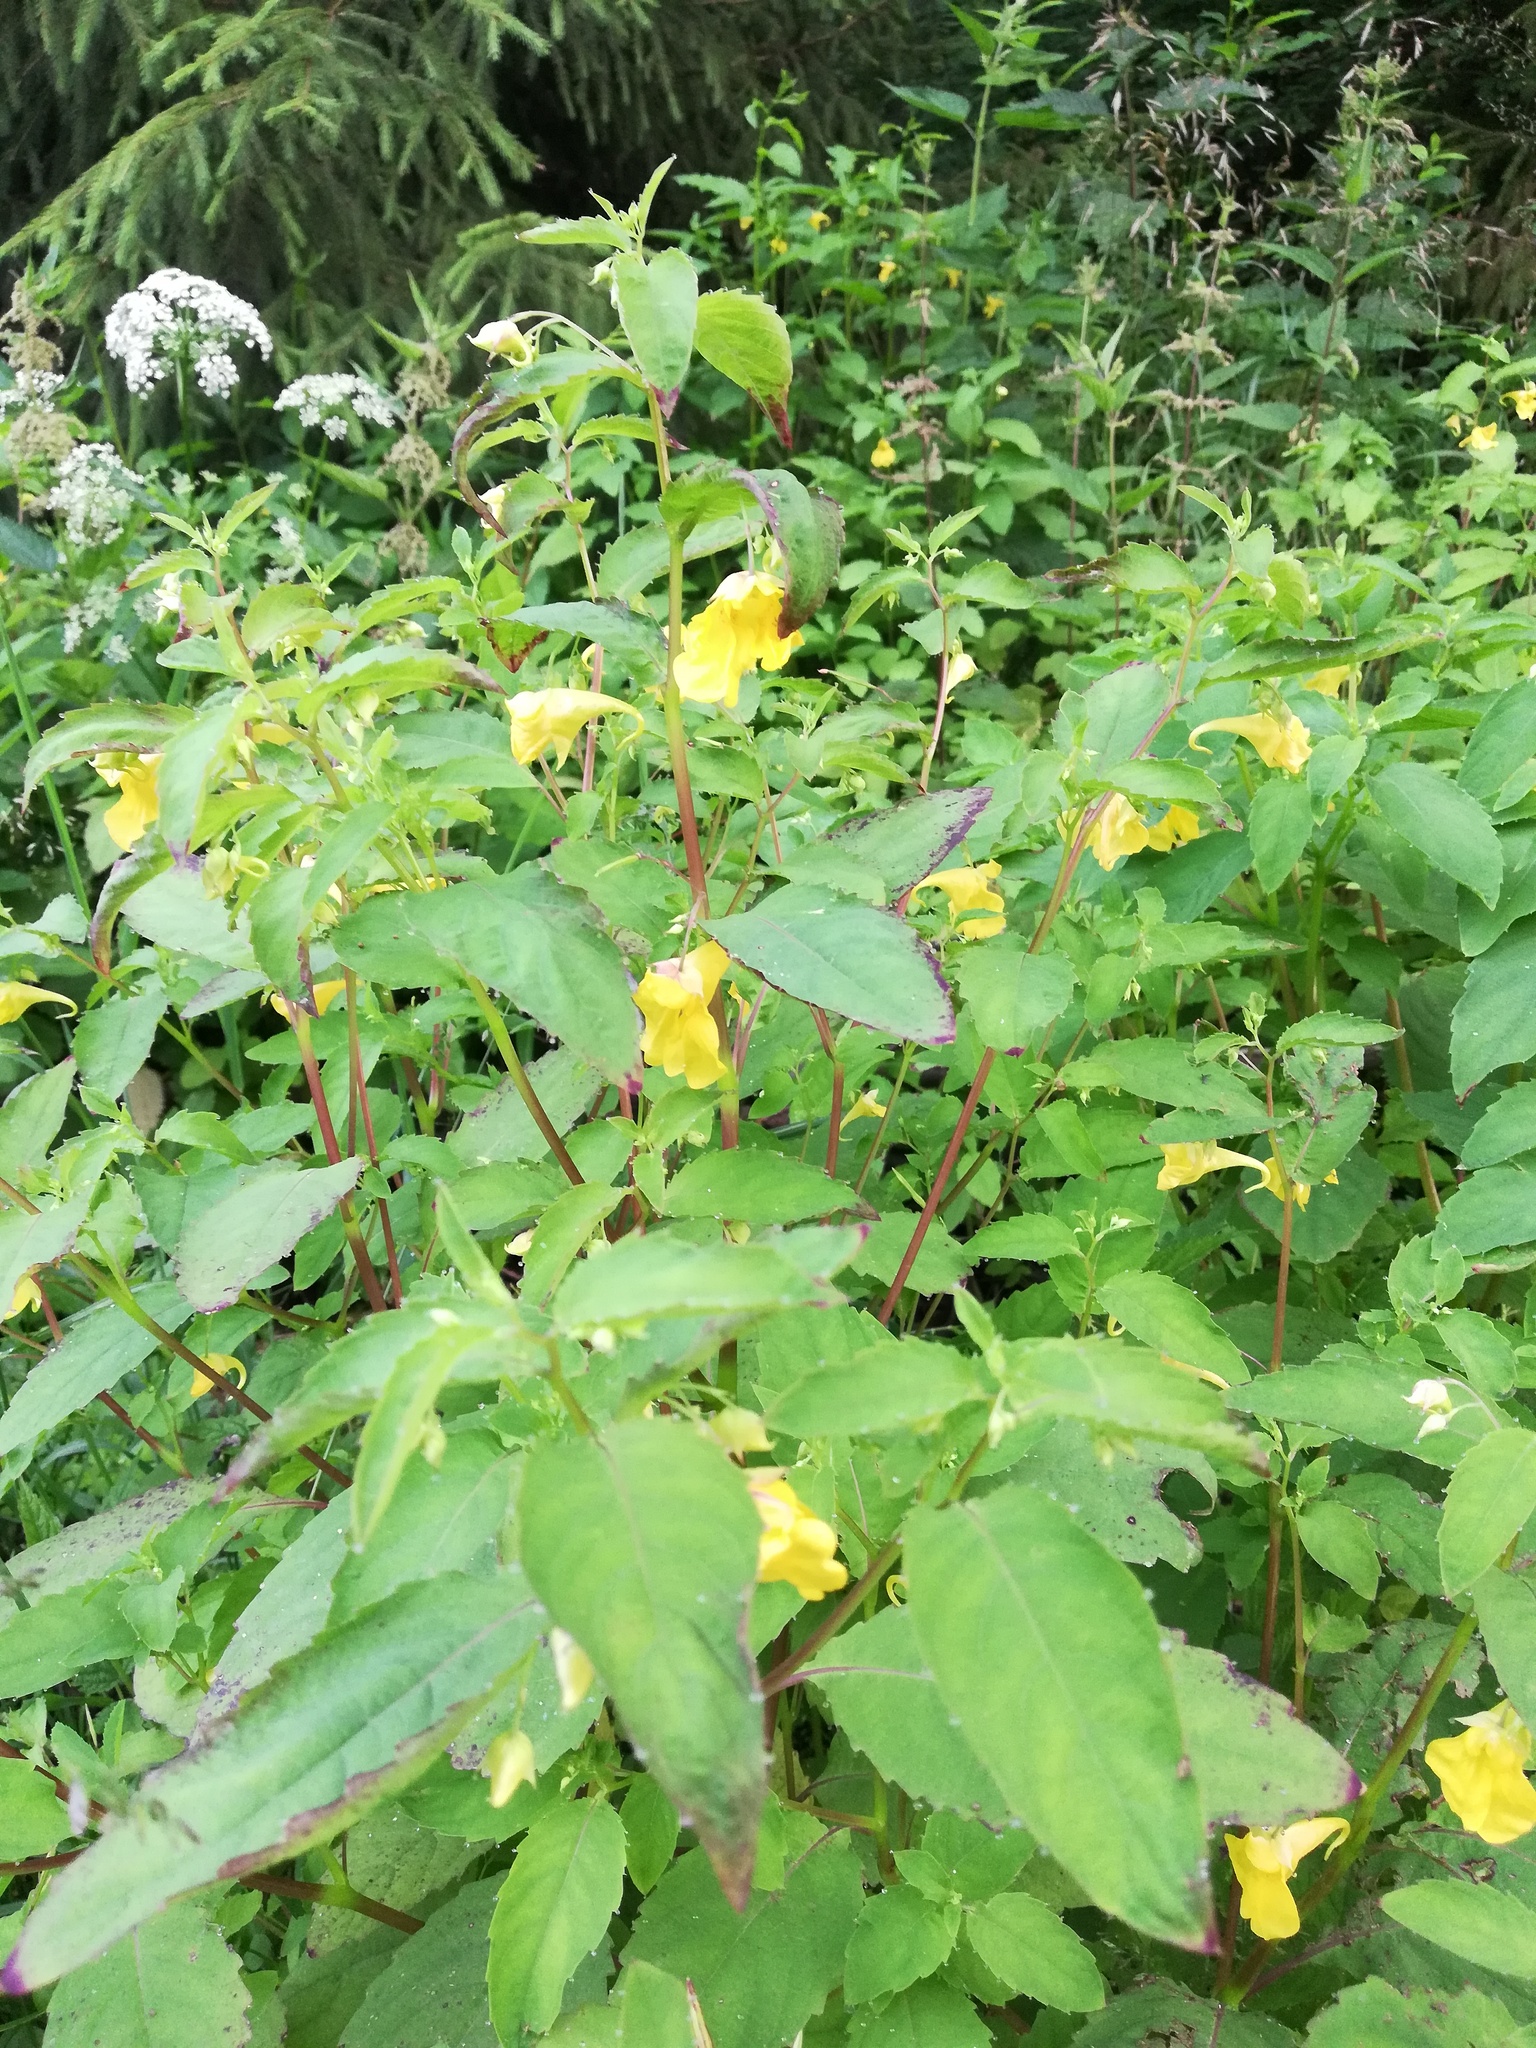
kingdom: Plantae
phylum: Tracheophyta
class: Magnoliopsida
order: Ericales
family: Balsaminaceae
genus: Impatiens
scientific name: Impatiens noli-tangere
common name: Touch-me-not balsam
